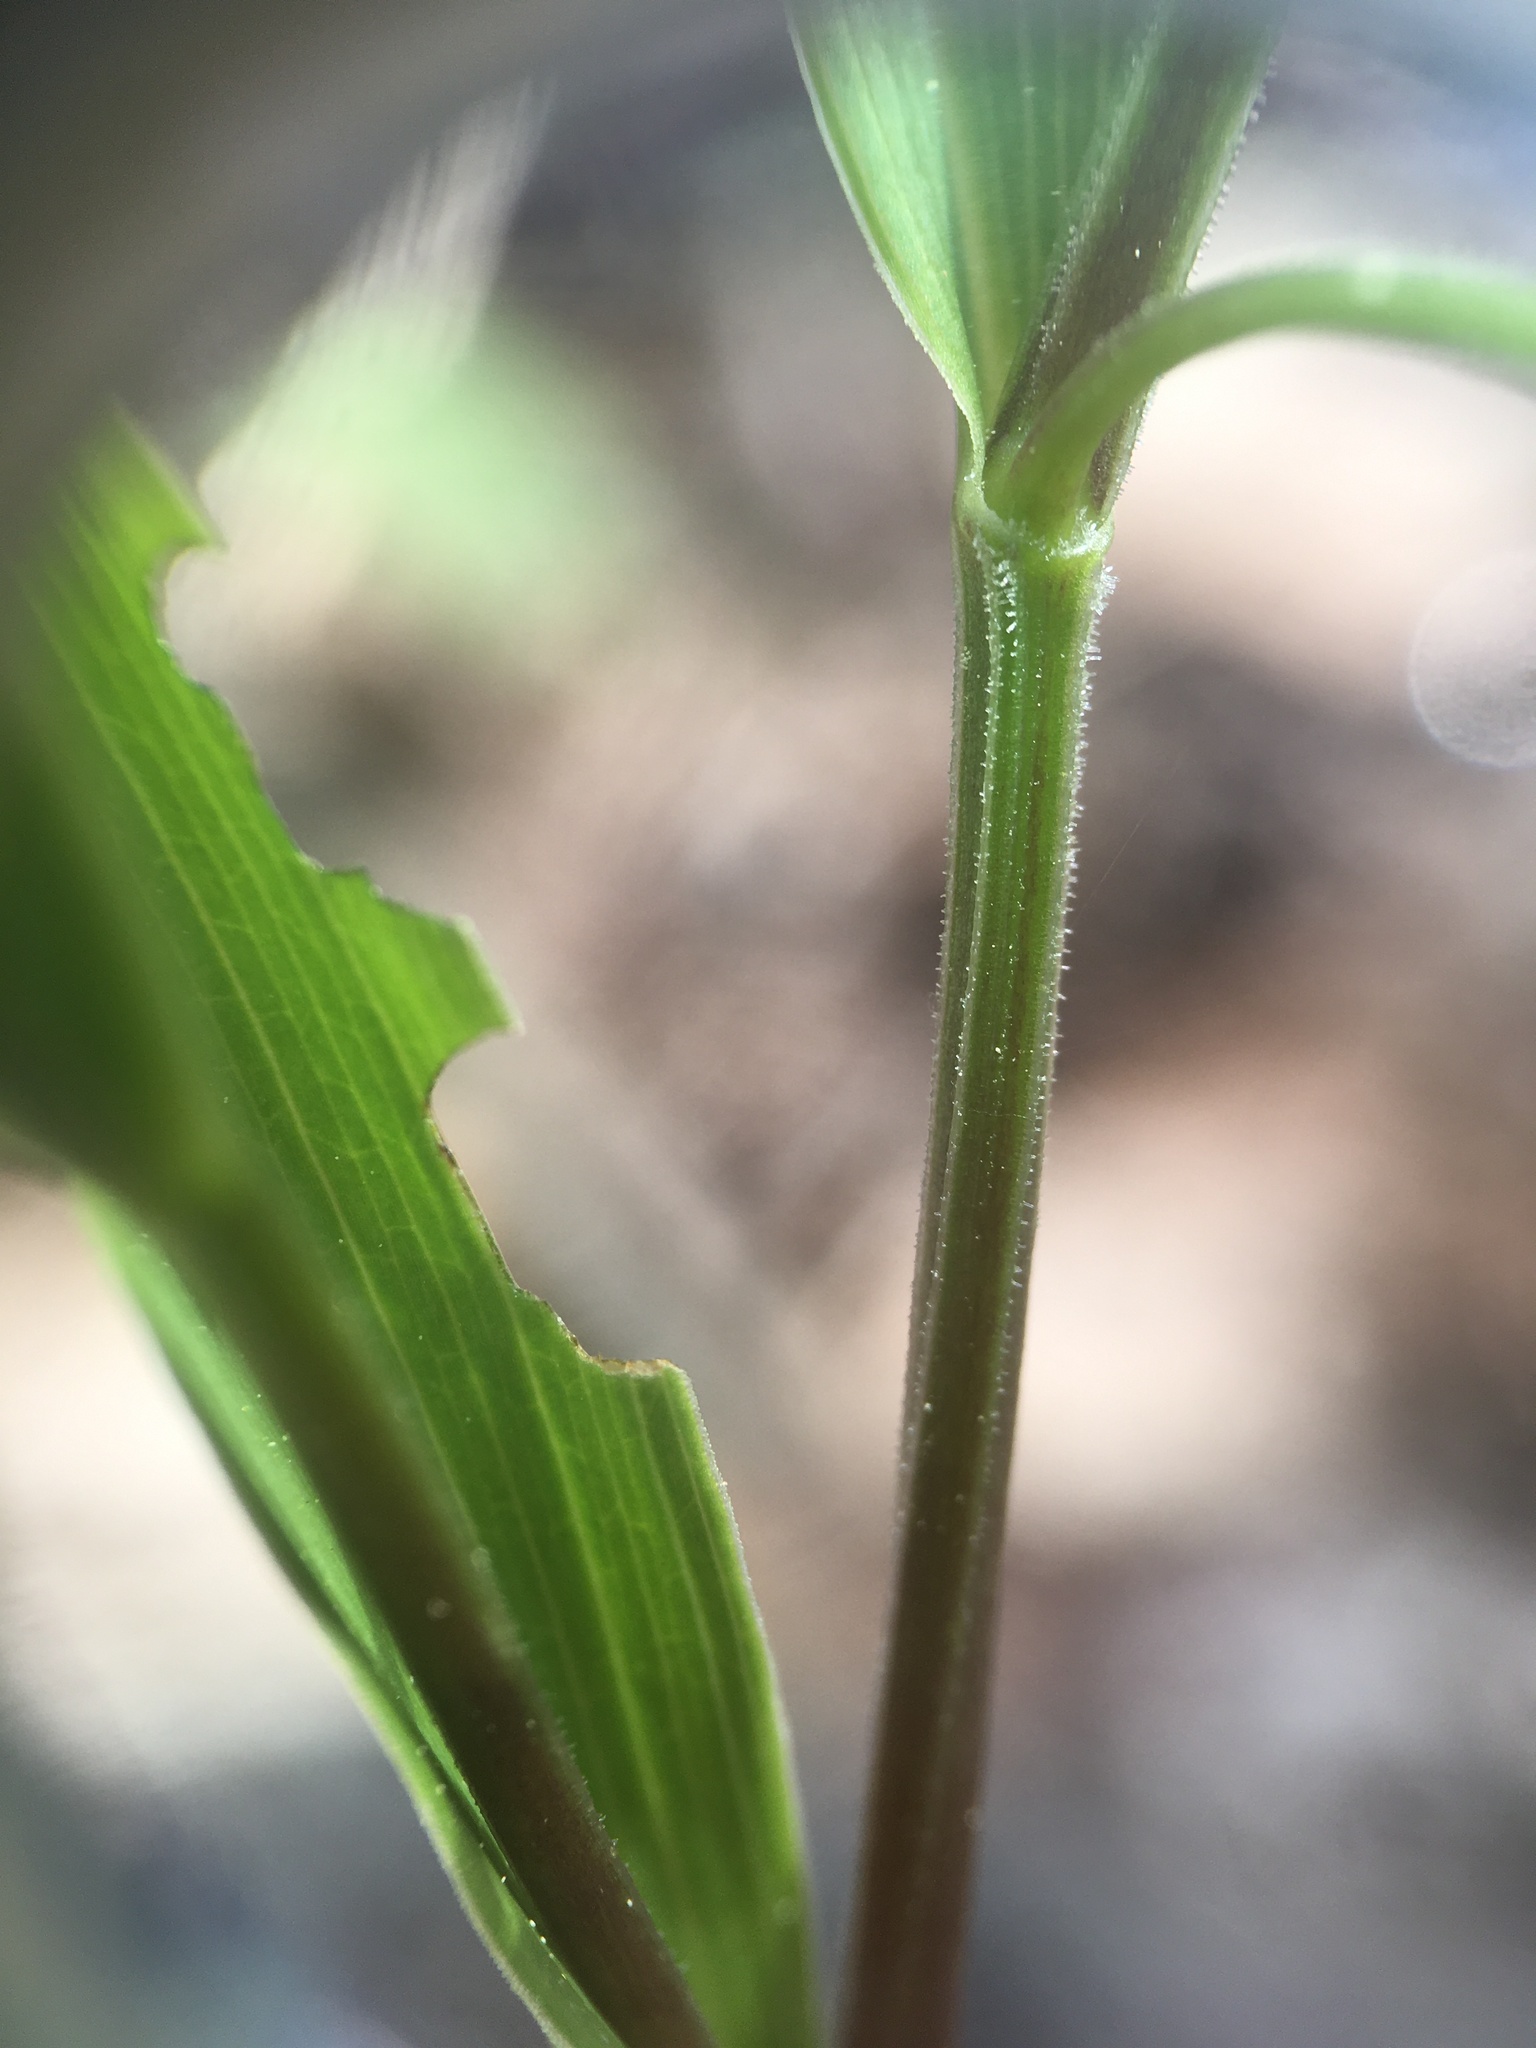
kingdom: Plantae
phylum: Tracheophyta
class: Liliopsida
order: Liliales
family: Colchicaceae
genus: Uvularia
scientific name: Uvularia puberula
